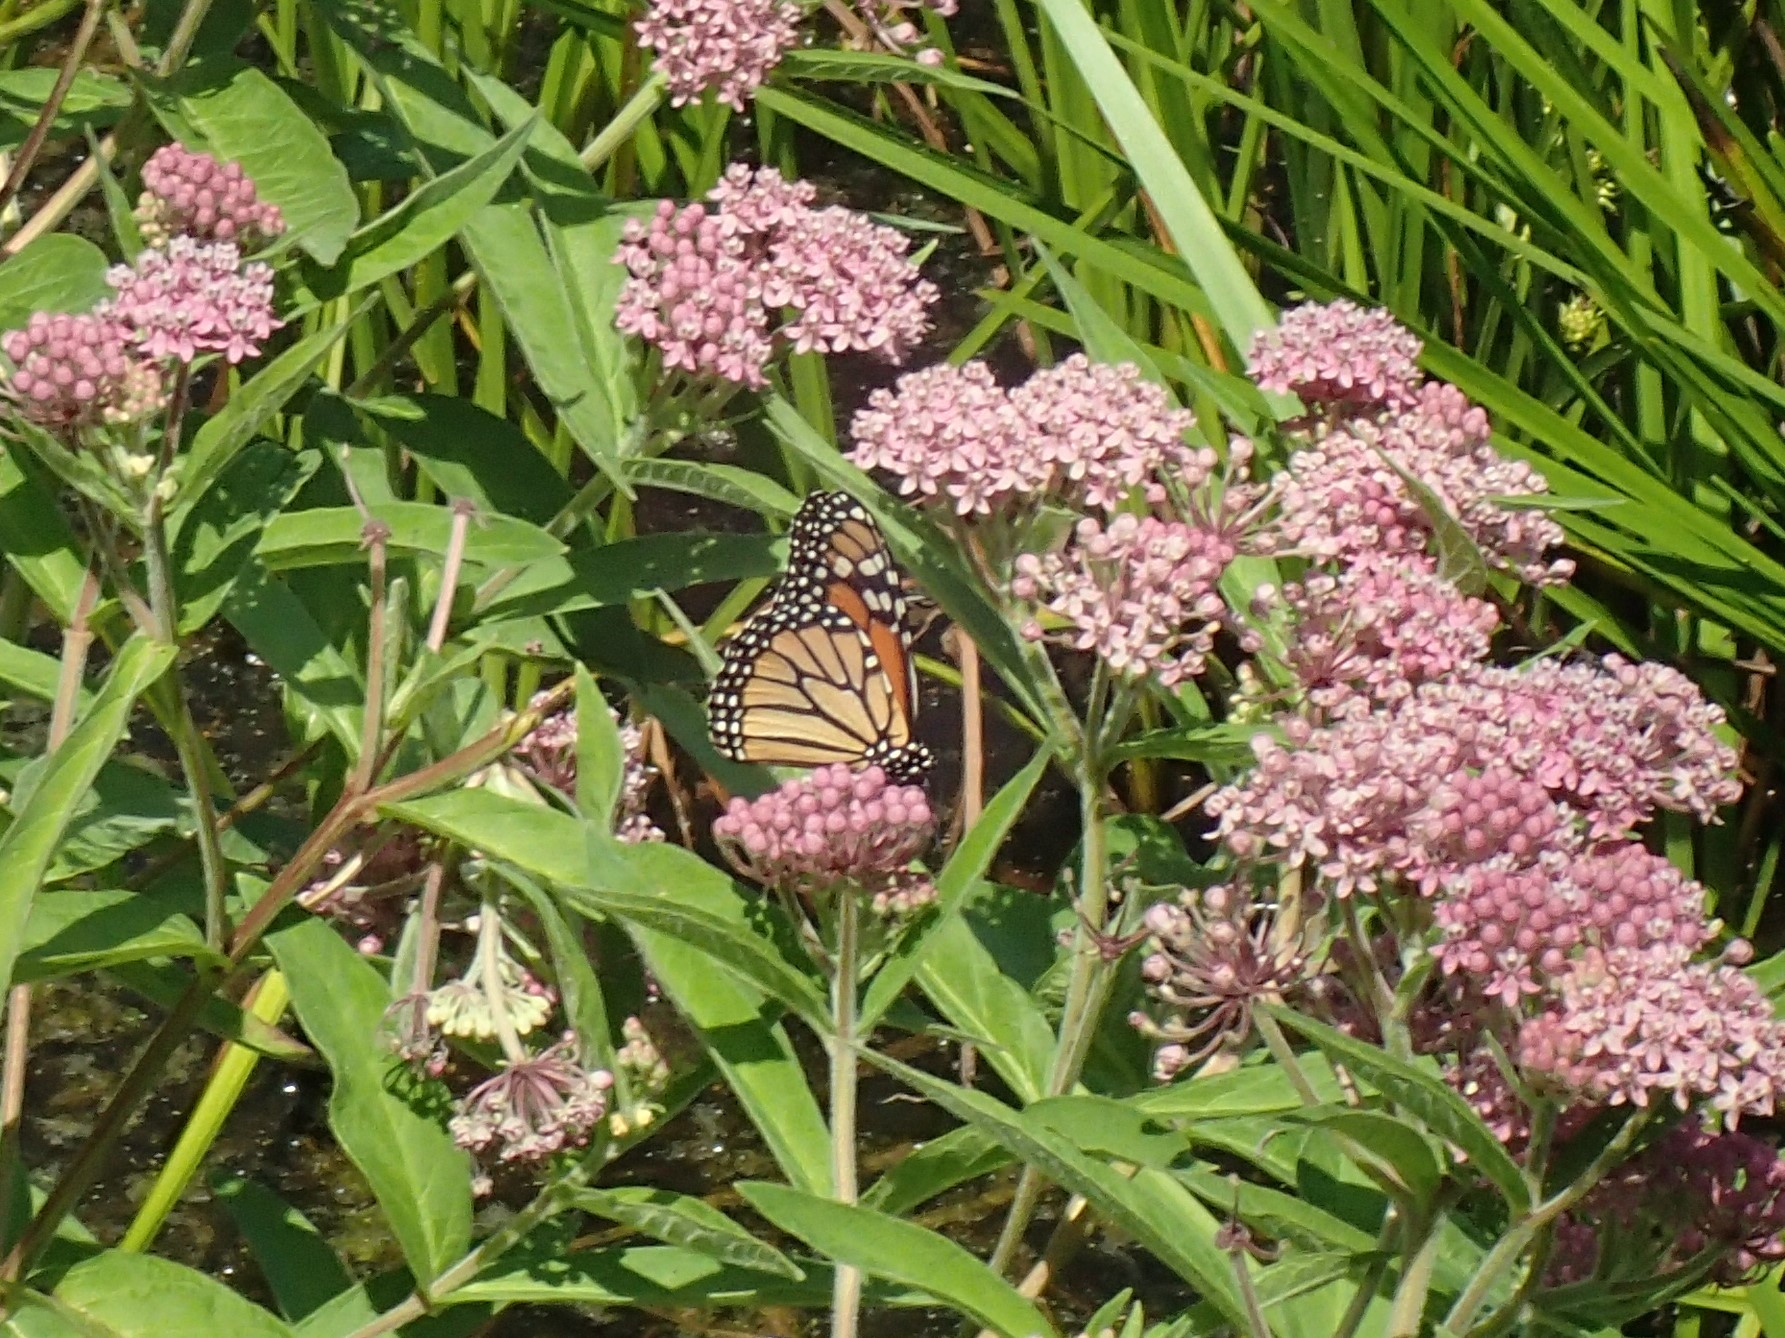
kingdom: Animalia
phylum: Arthropoda
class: Insecta
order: Lepidoptera
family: Nymphalidae
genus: Danaus
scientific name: Danaus plexippus
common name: Monarch
